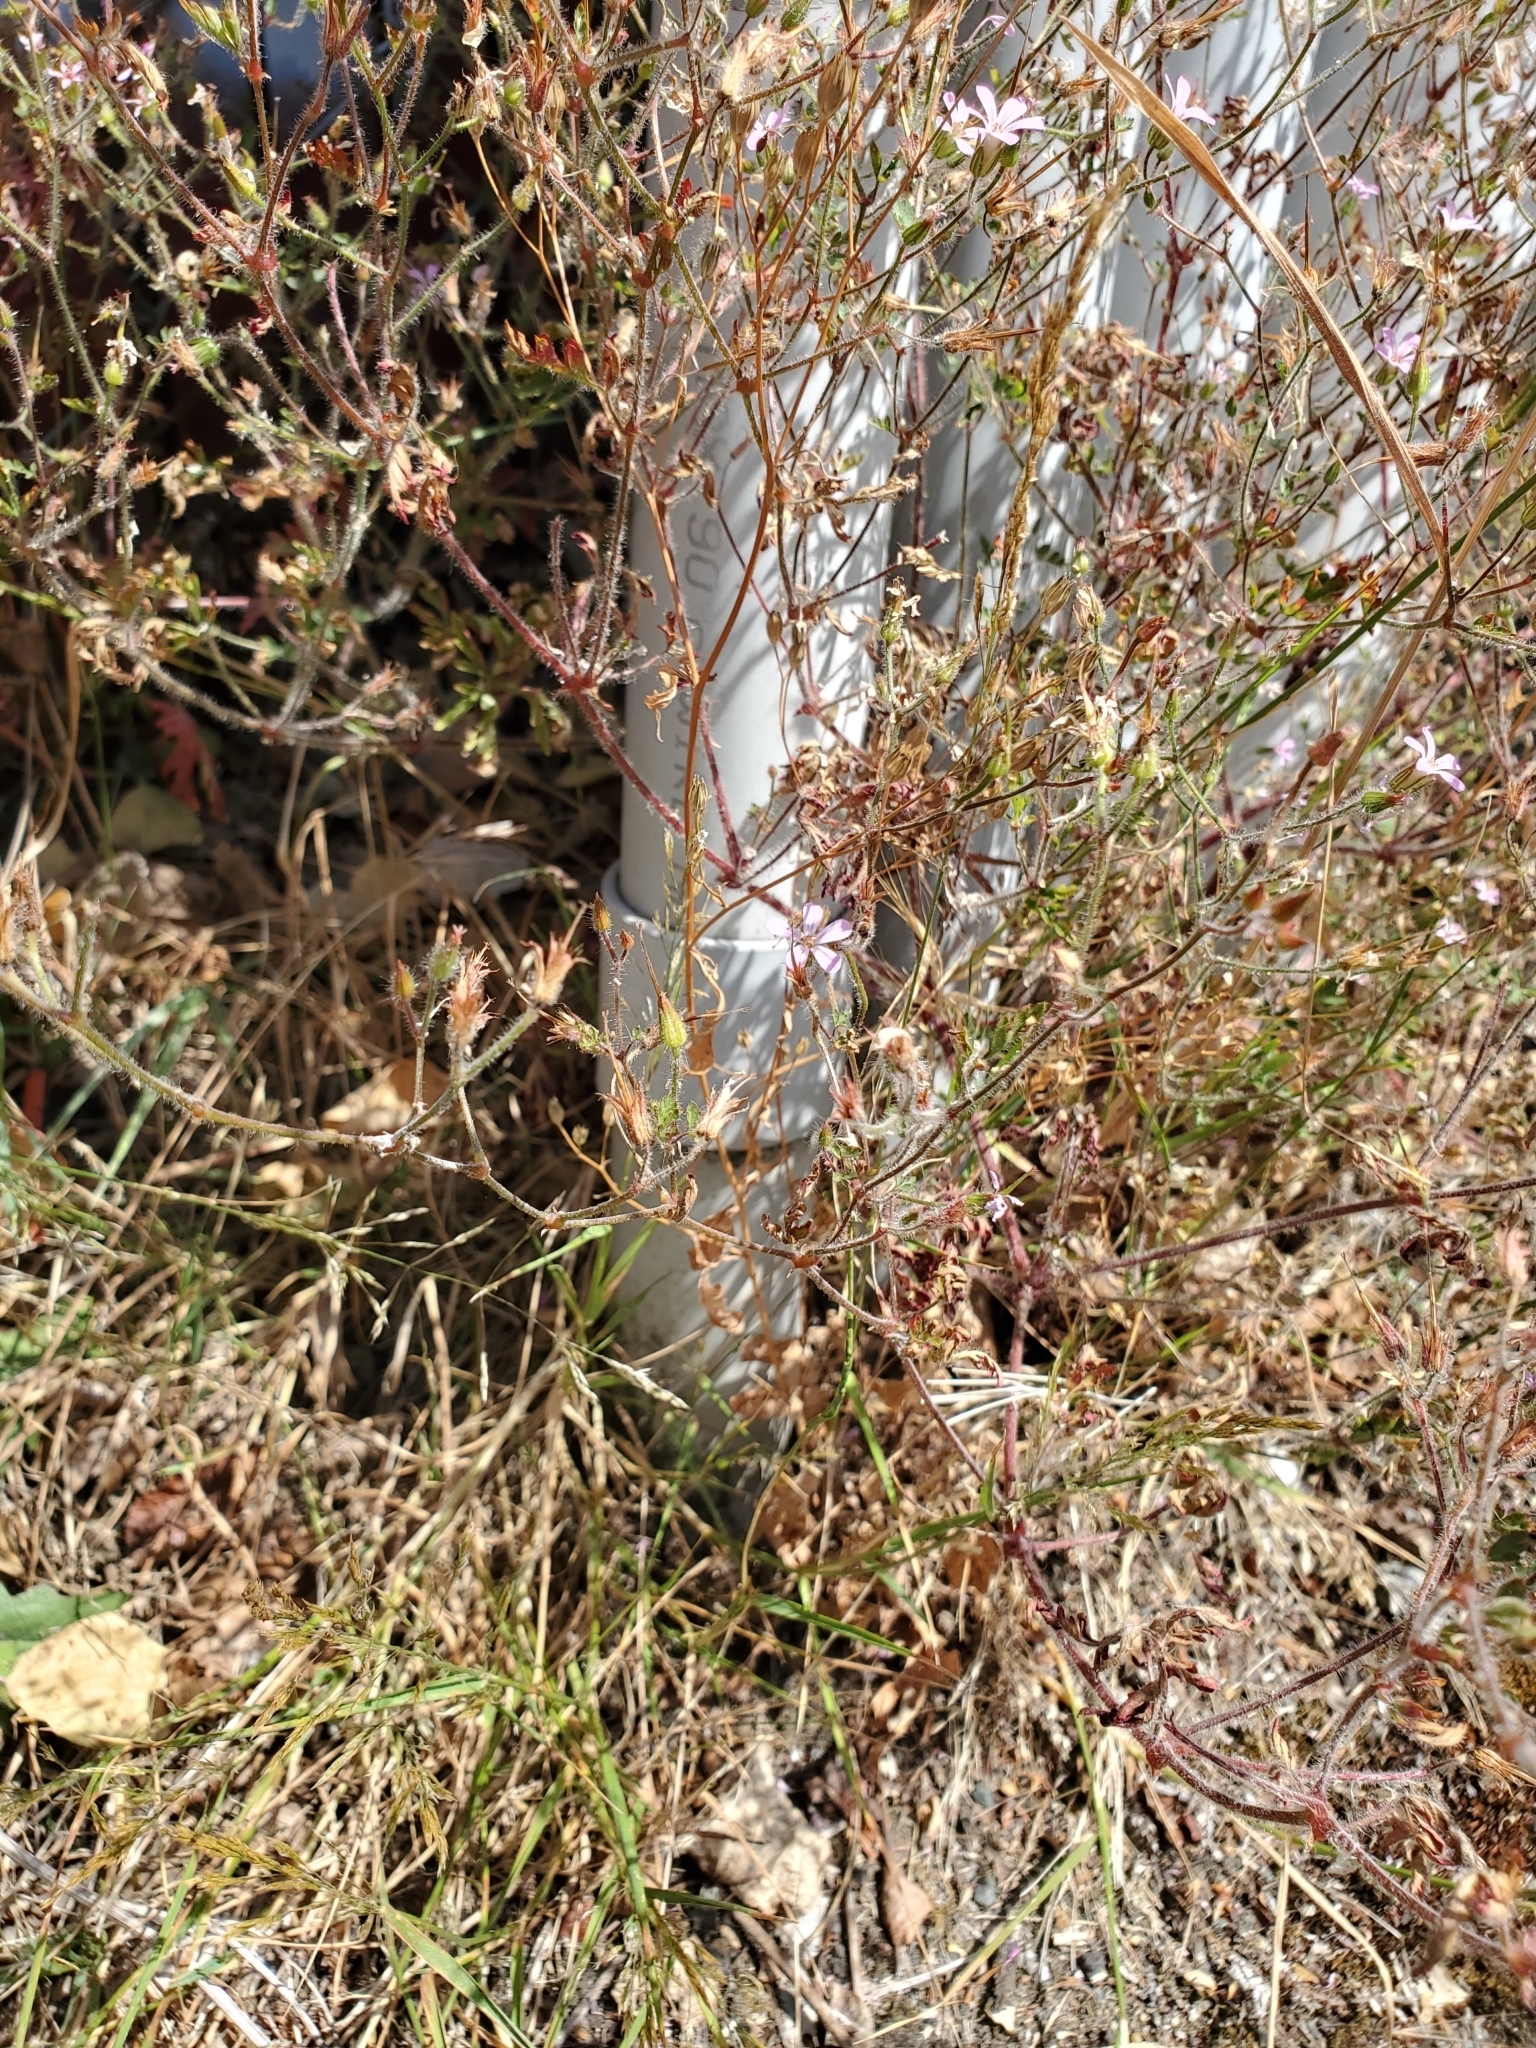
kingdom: Plantae
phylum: Tracheophyta
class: Magnoliopsida
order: Geraniales
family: Geraniaceae
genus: Geranium
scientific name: Geranium robertianum
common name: Herb-robert
